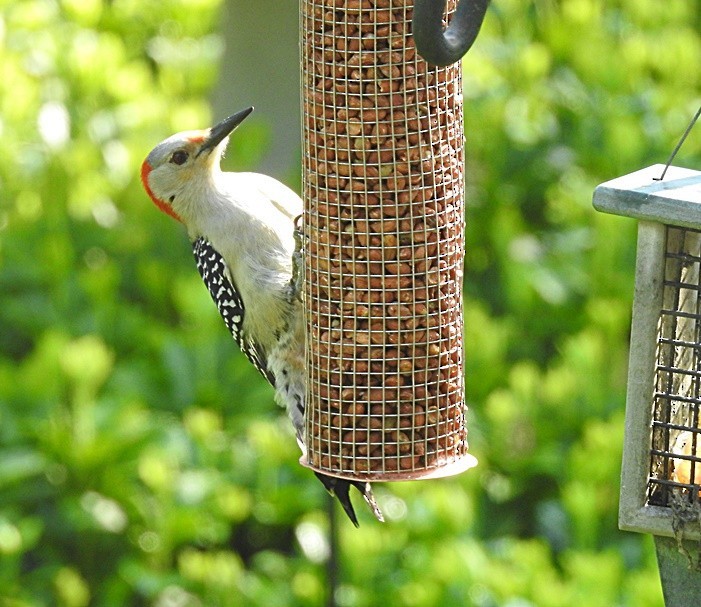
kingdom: Animalia
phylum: Chordata
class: Aves
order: Piciformes
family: Picidae
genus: Melanerpes
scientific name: Melanerpes carolinus
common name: Red-bellied woodpecker
